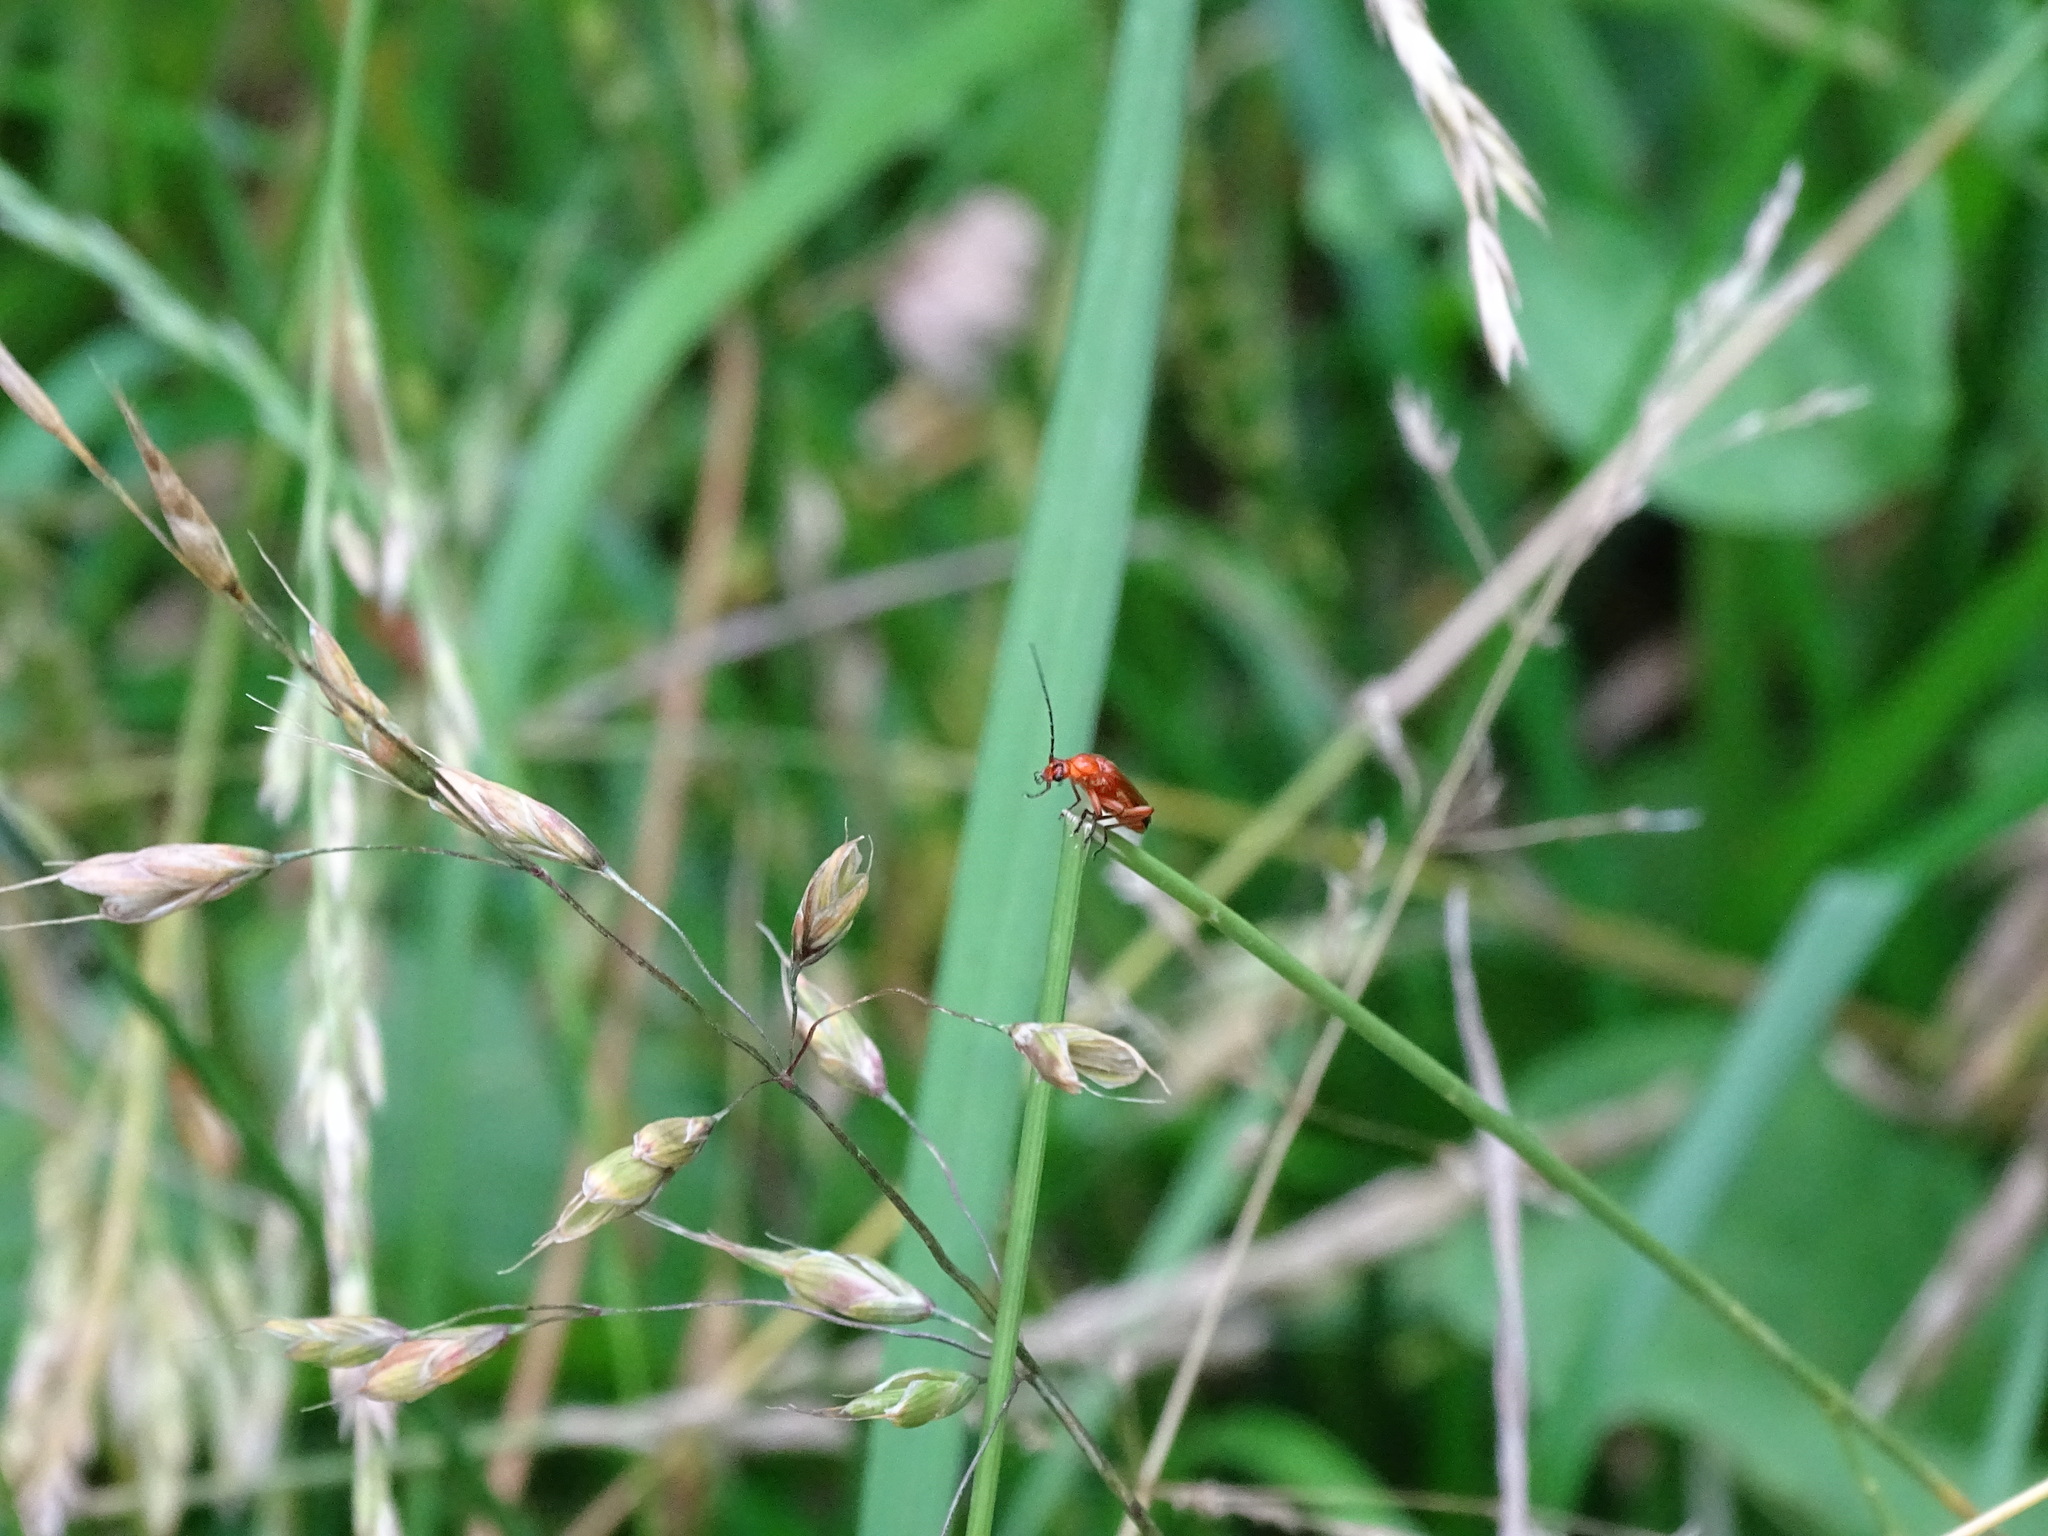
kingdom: Animalia
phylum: Arthropoda
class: Insecta
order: Coleoptera
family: Cantharidae
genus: Rhagonycha
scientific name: Rhagonycha fulva
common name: Common red soldier beetle
